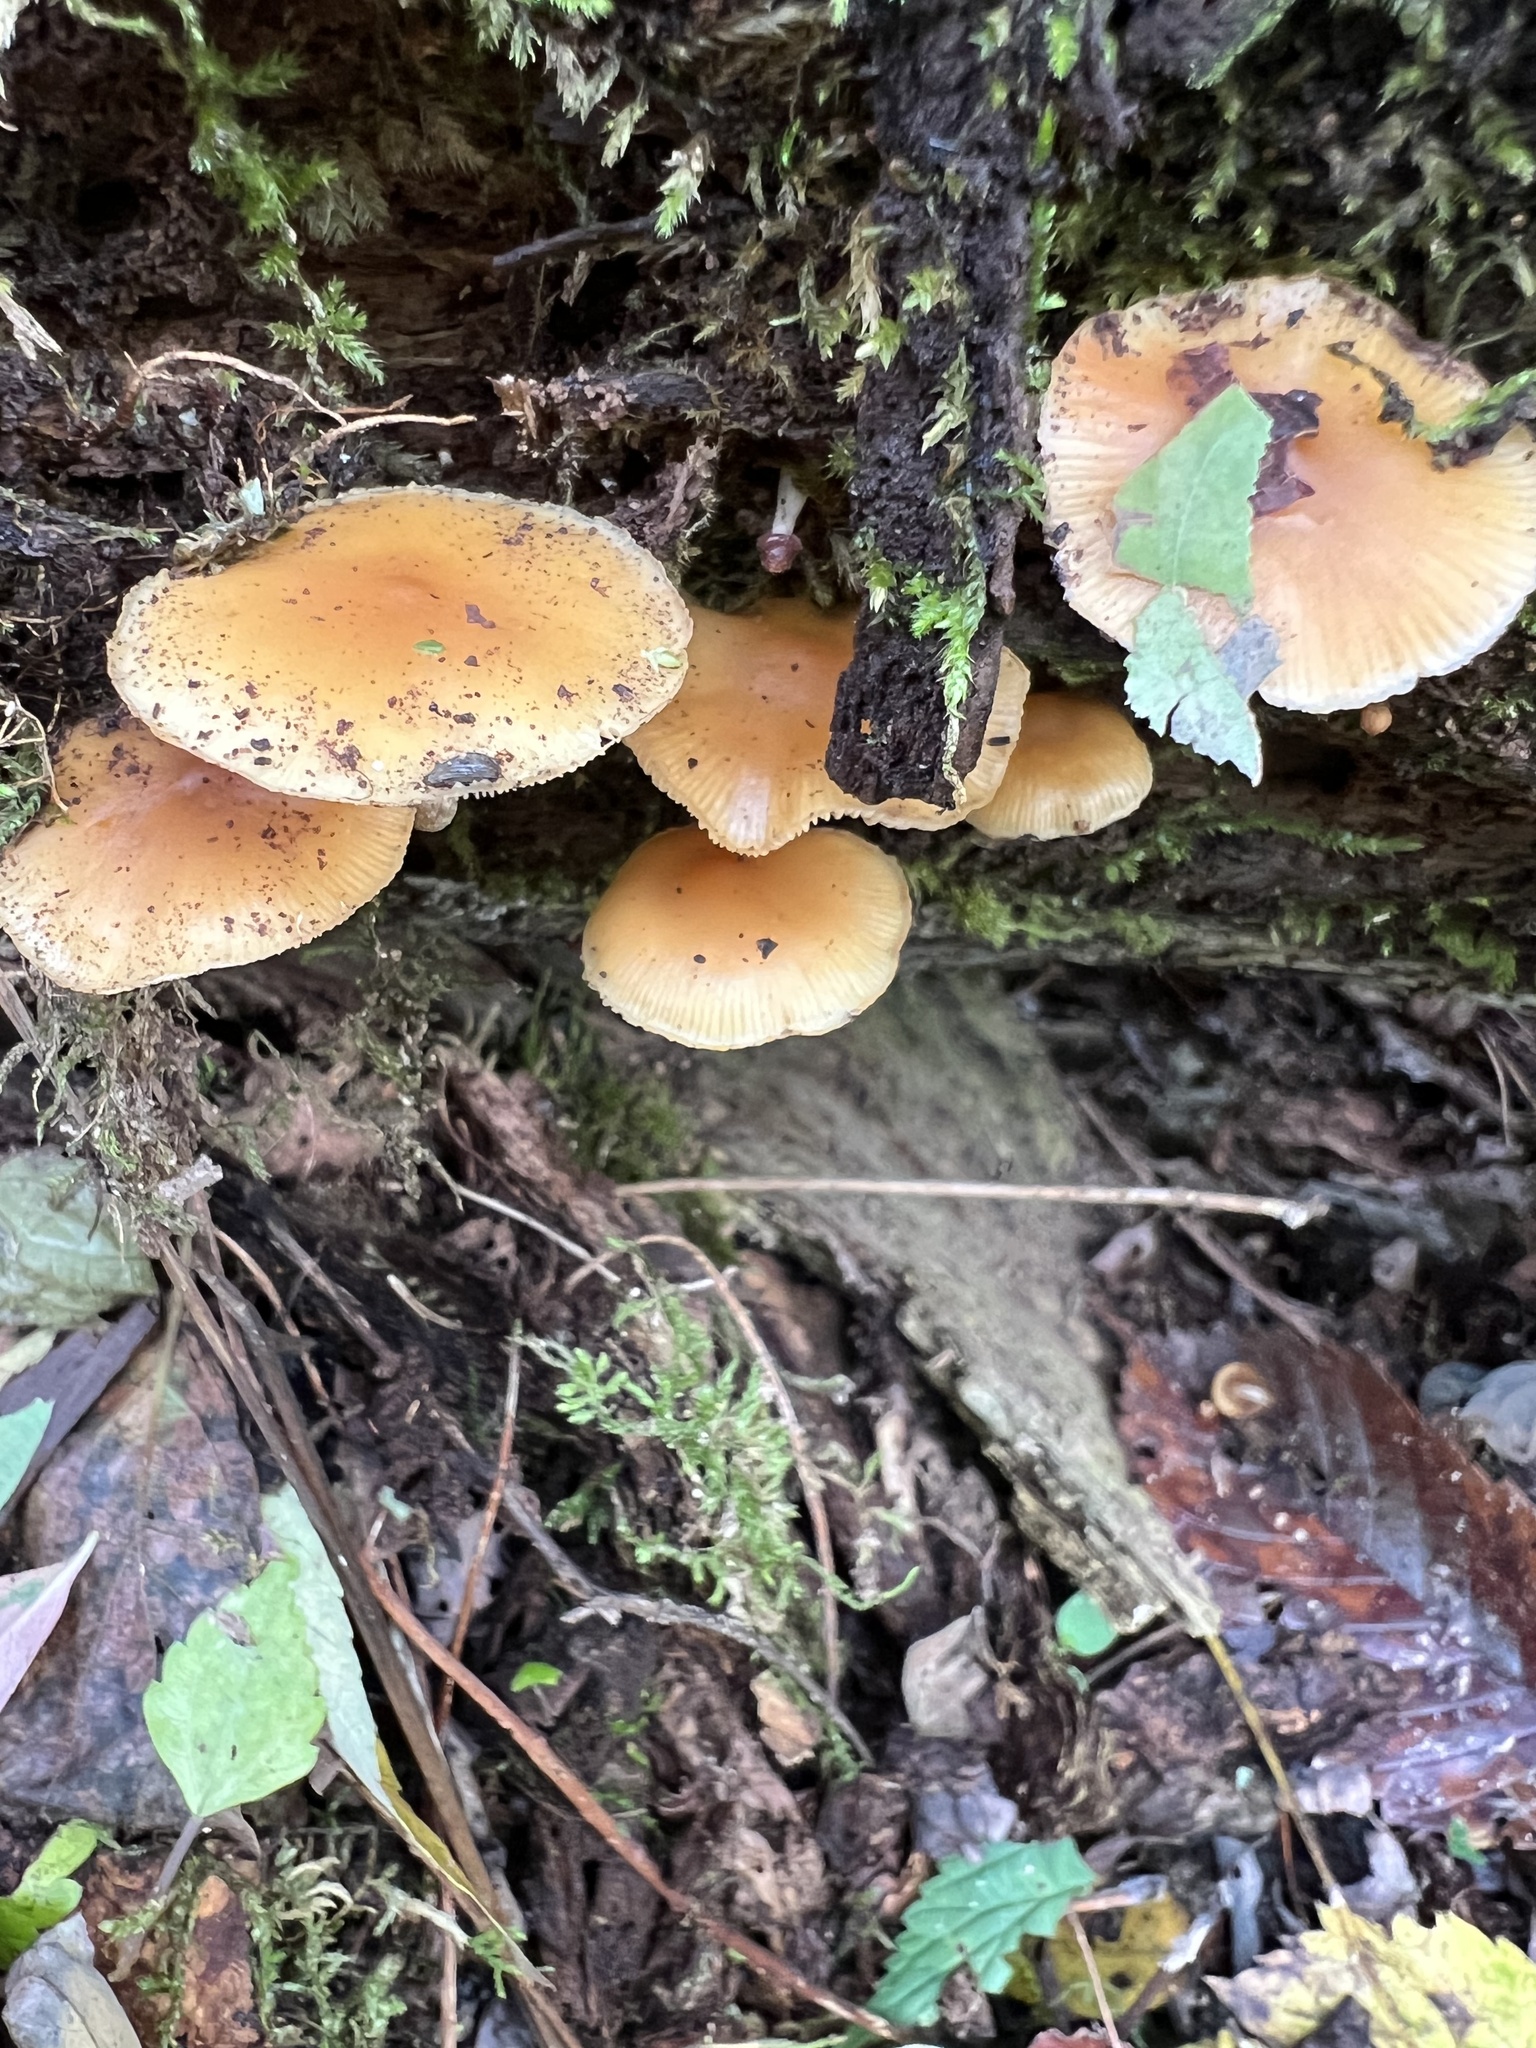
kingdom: Fungi
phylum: Basidiomycota
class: Agaricomycetes
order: Agaricales
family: Hymenogastraceae
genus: Galerina
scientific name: Galerina marginata
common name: Funeral bell
